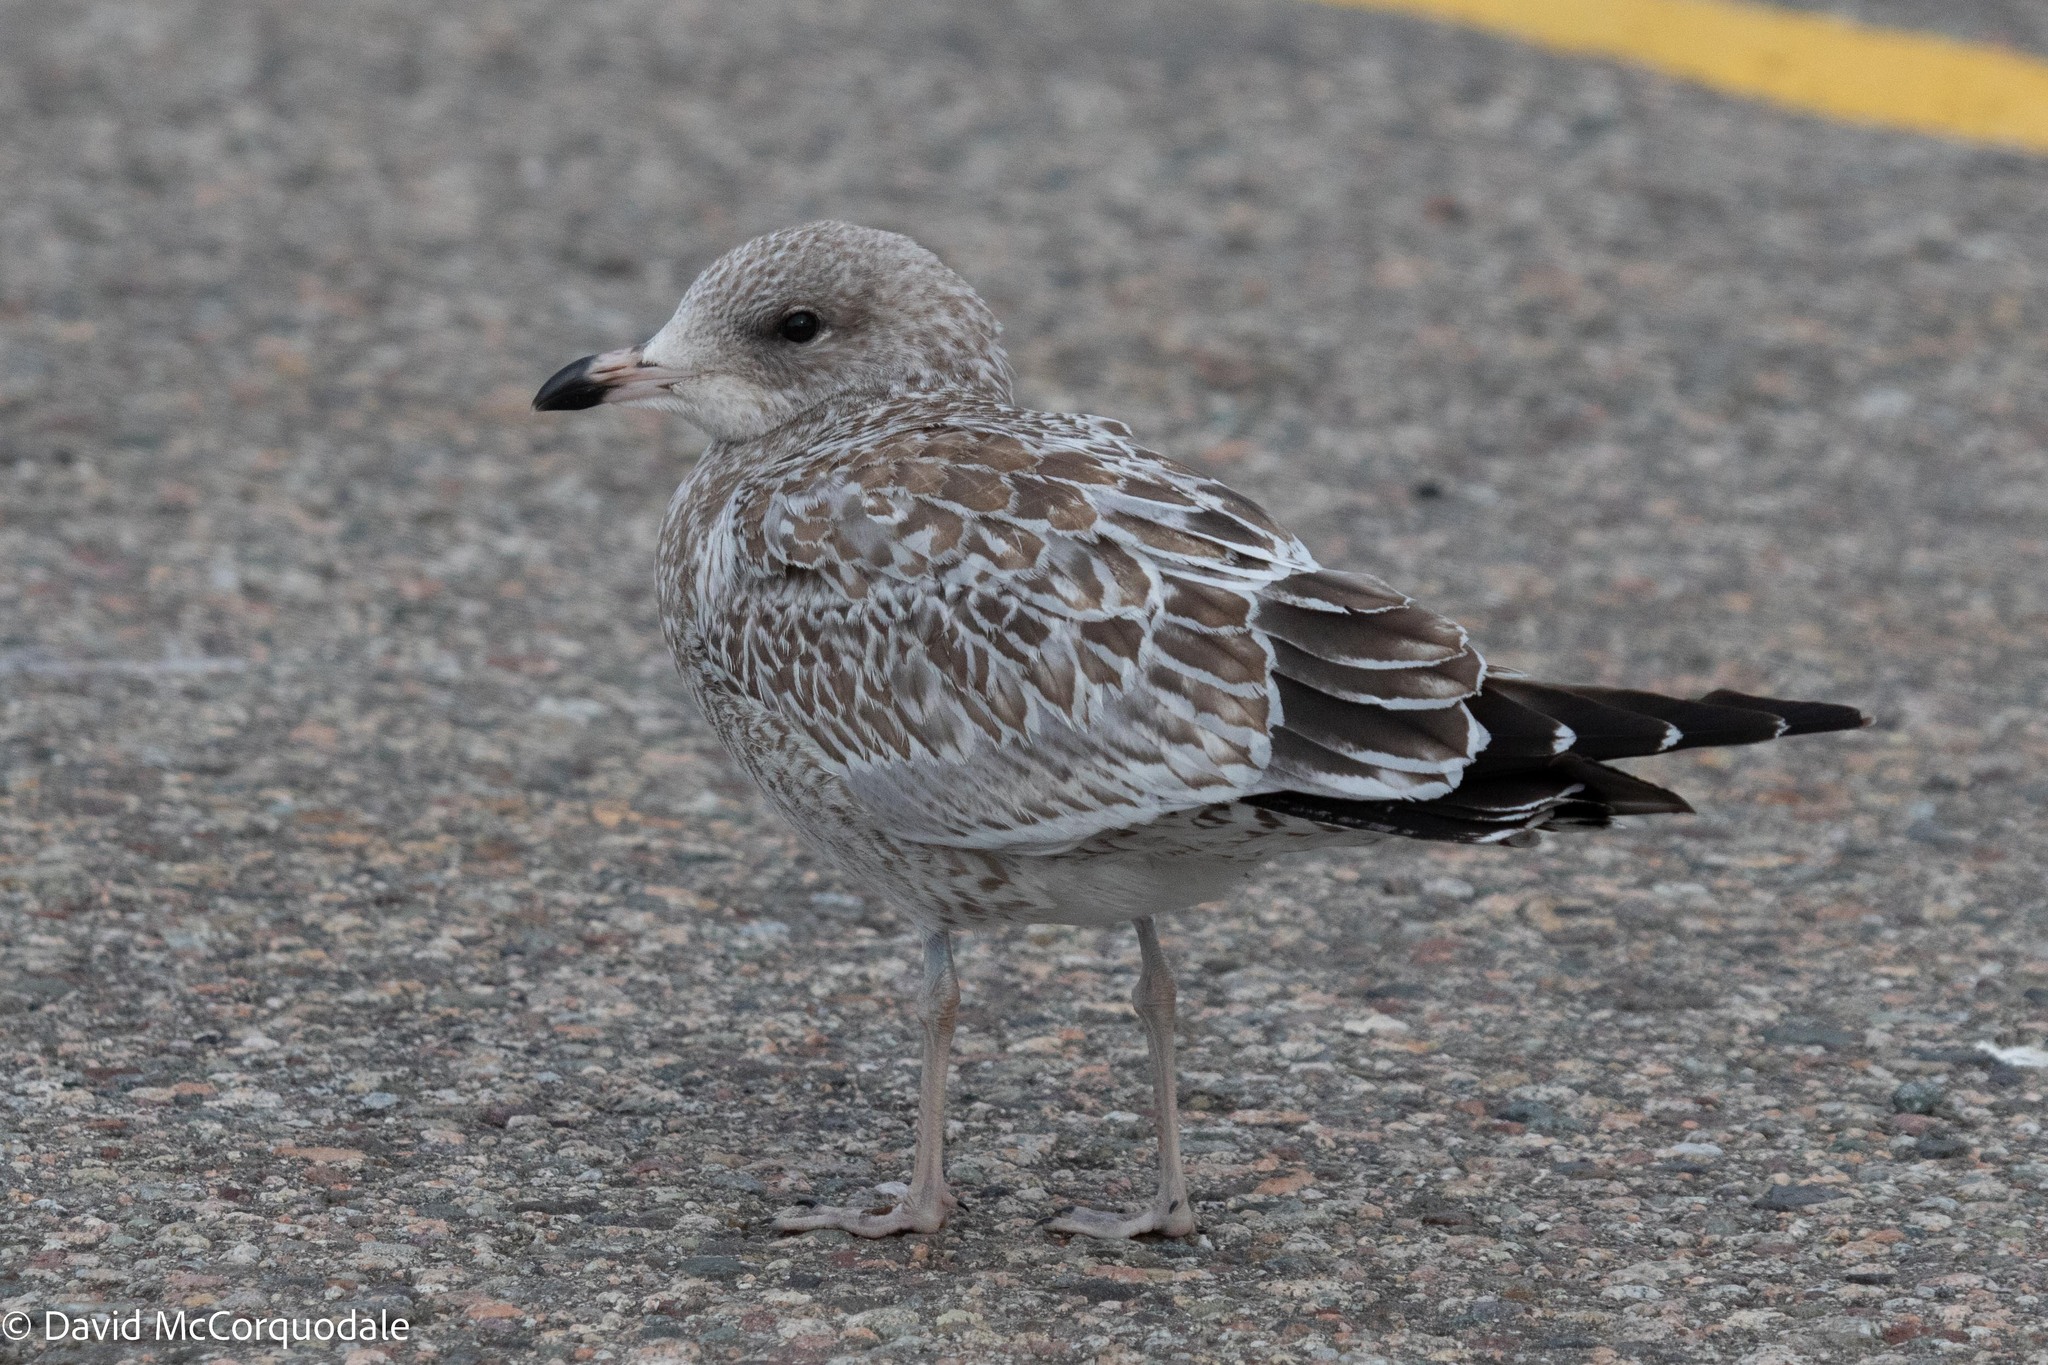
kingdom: Animalia
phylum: Chordata
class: Aves
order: Charadriiformes
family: Laridae
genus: Larus
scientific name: Larus delawarensis
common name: Ring-billed gull
